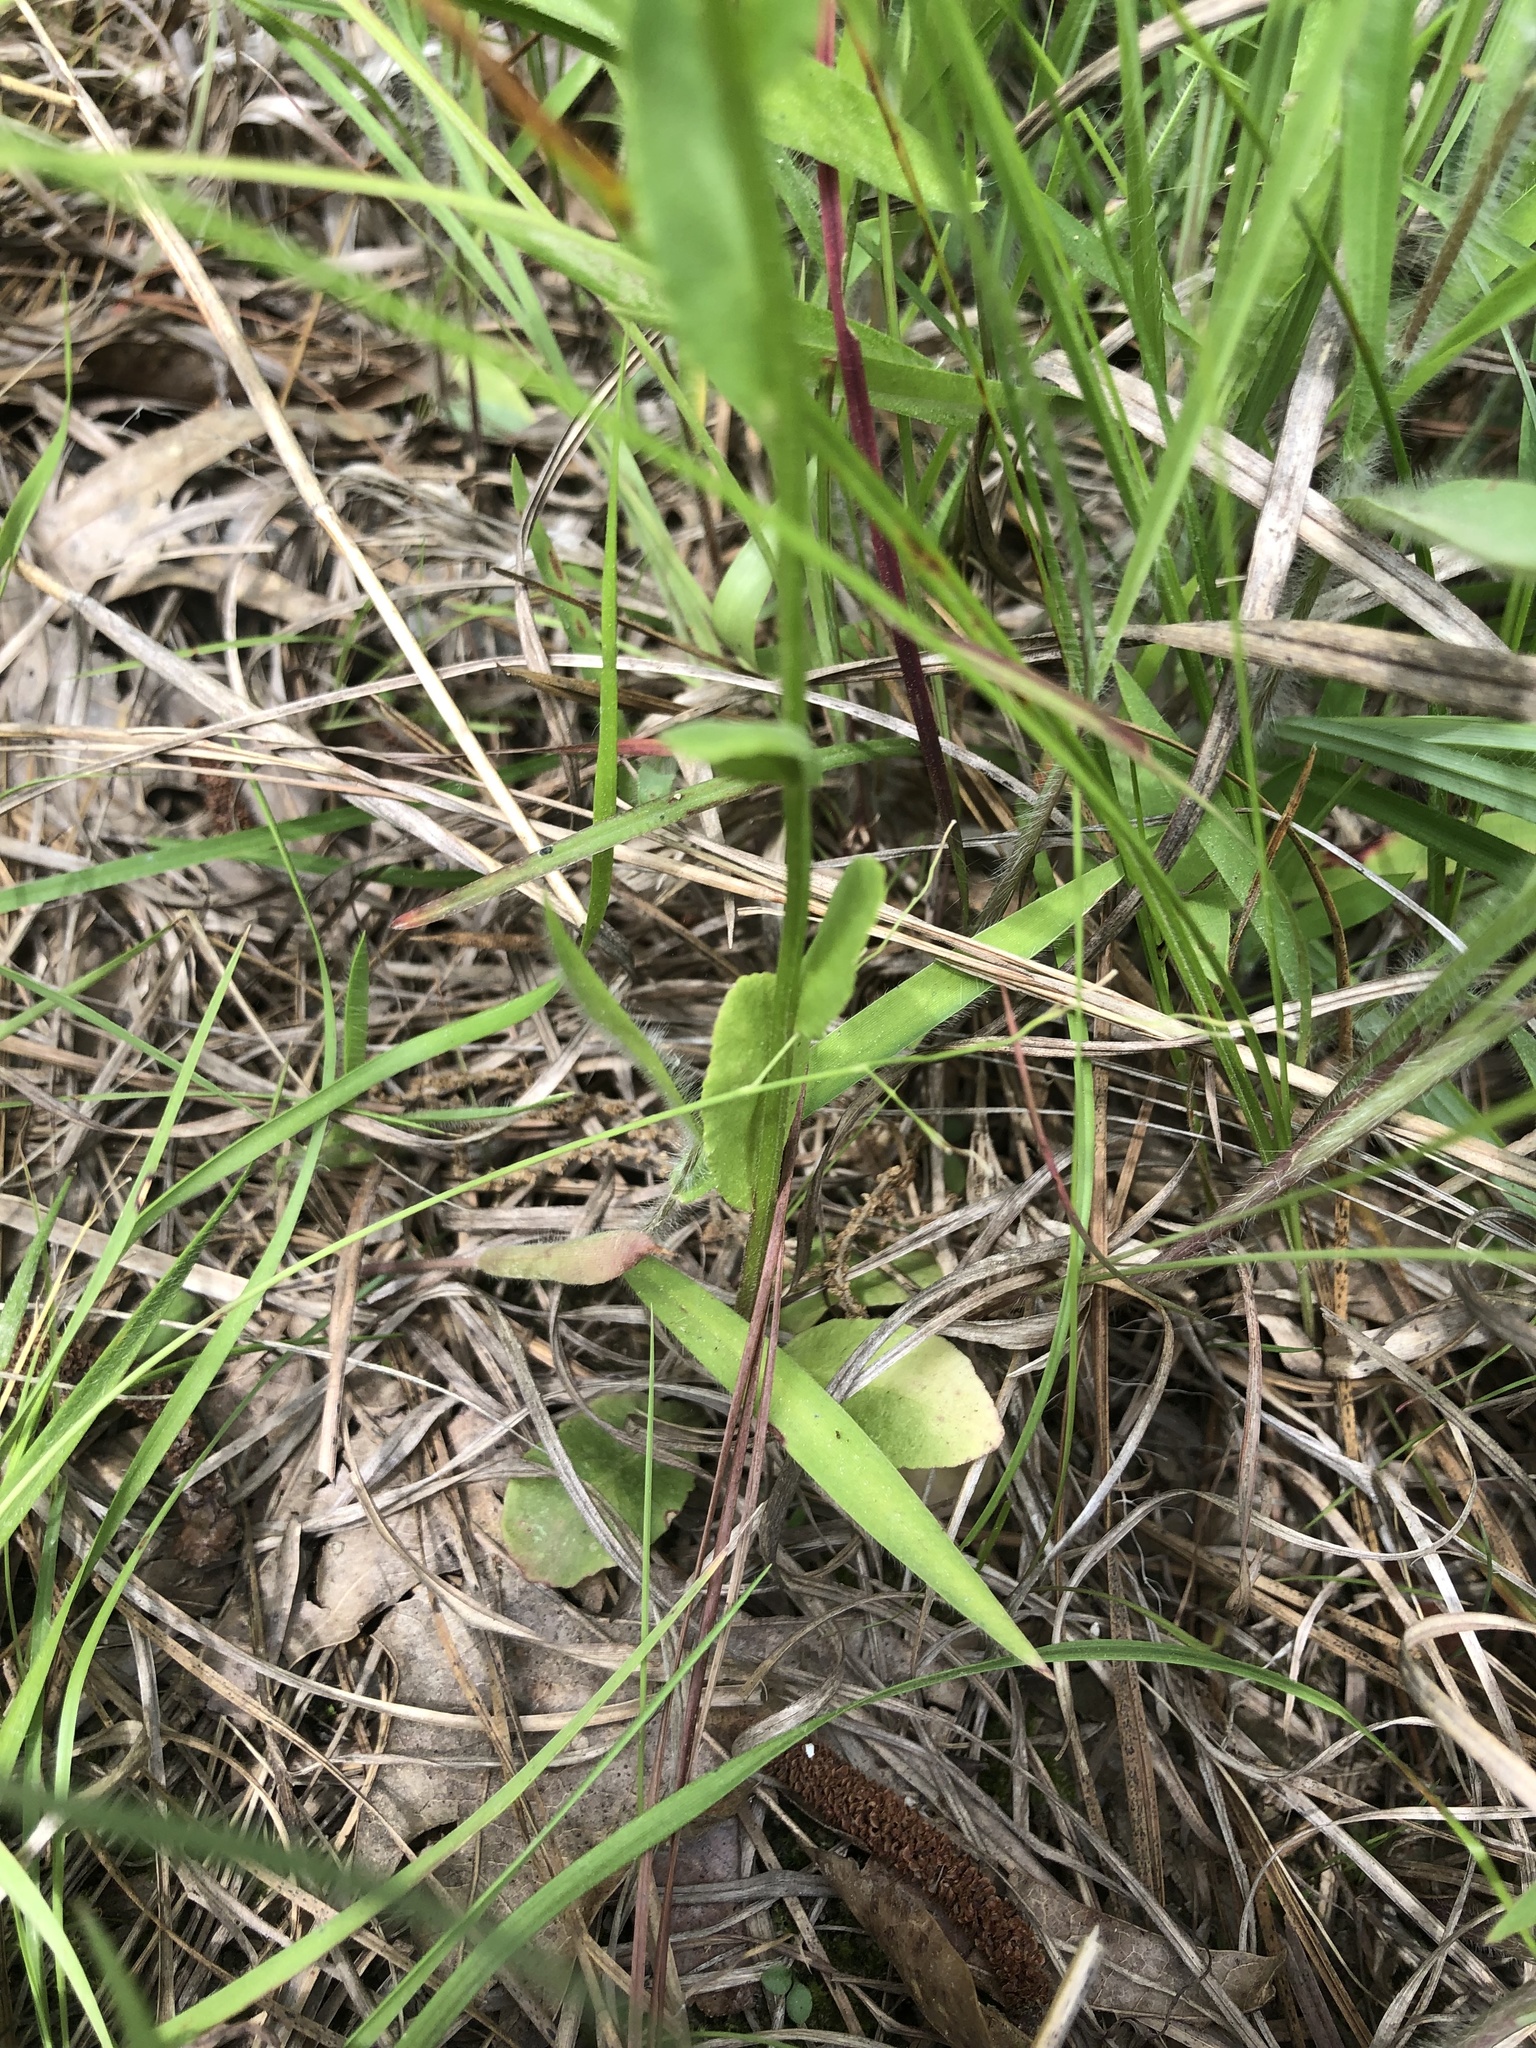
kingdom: Plantae
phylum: Tracheophyta
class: Magnoliopsida
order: Asterales
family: Campanulaceae
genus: Lobelia
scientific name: Lobelia appendiculata
